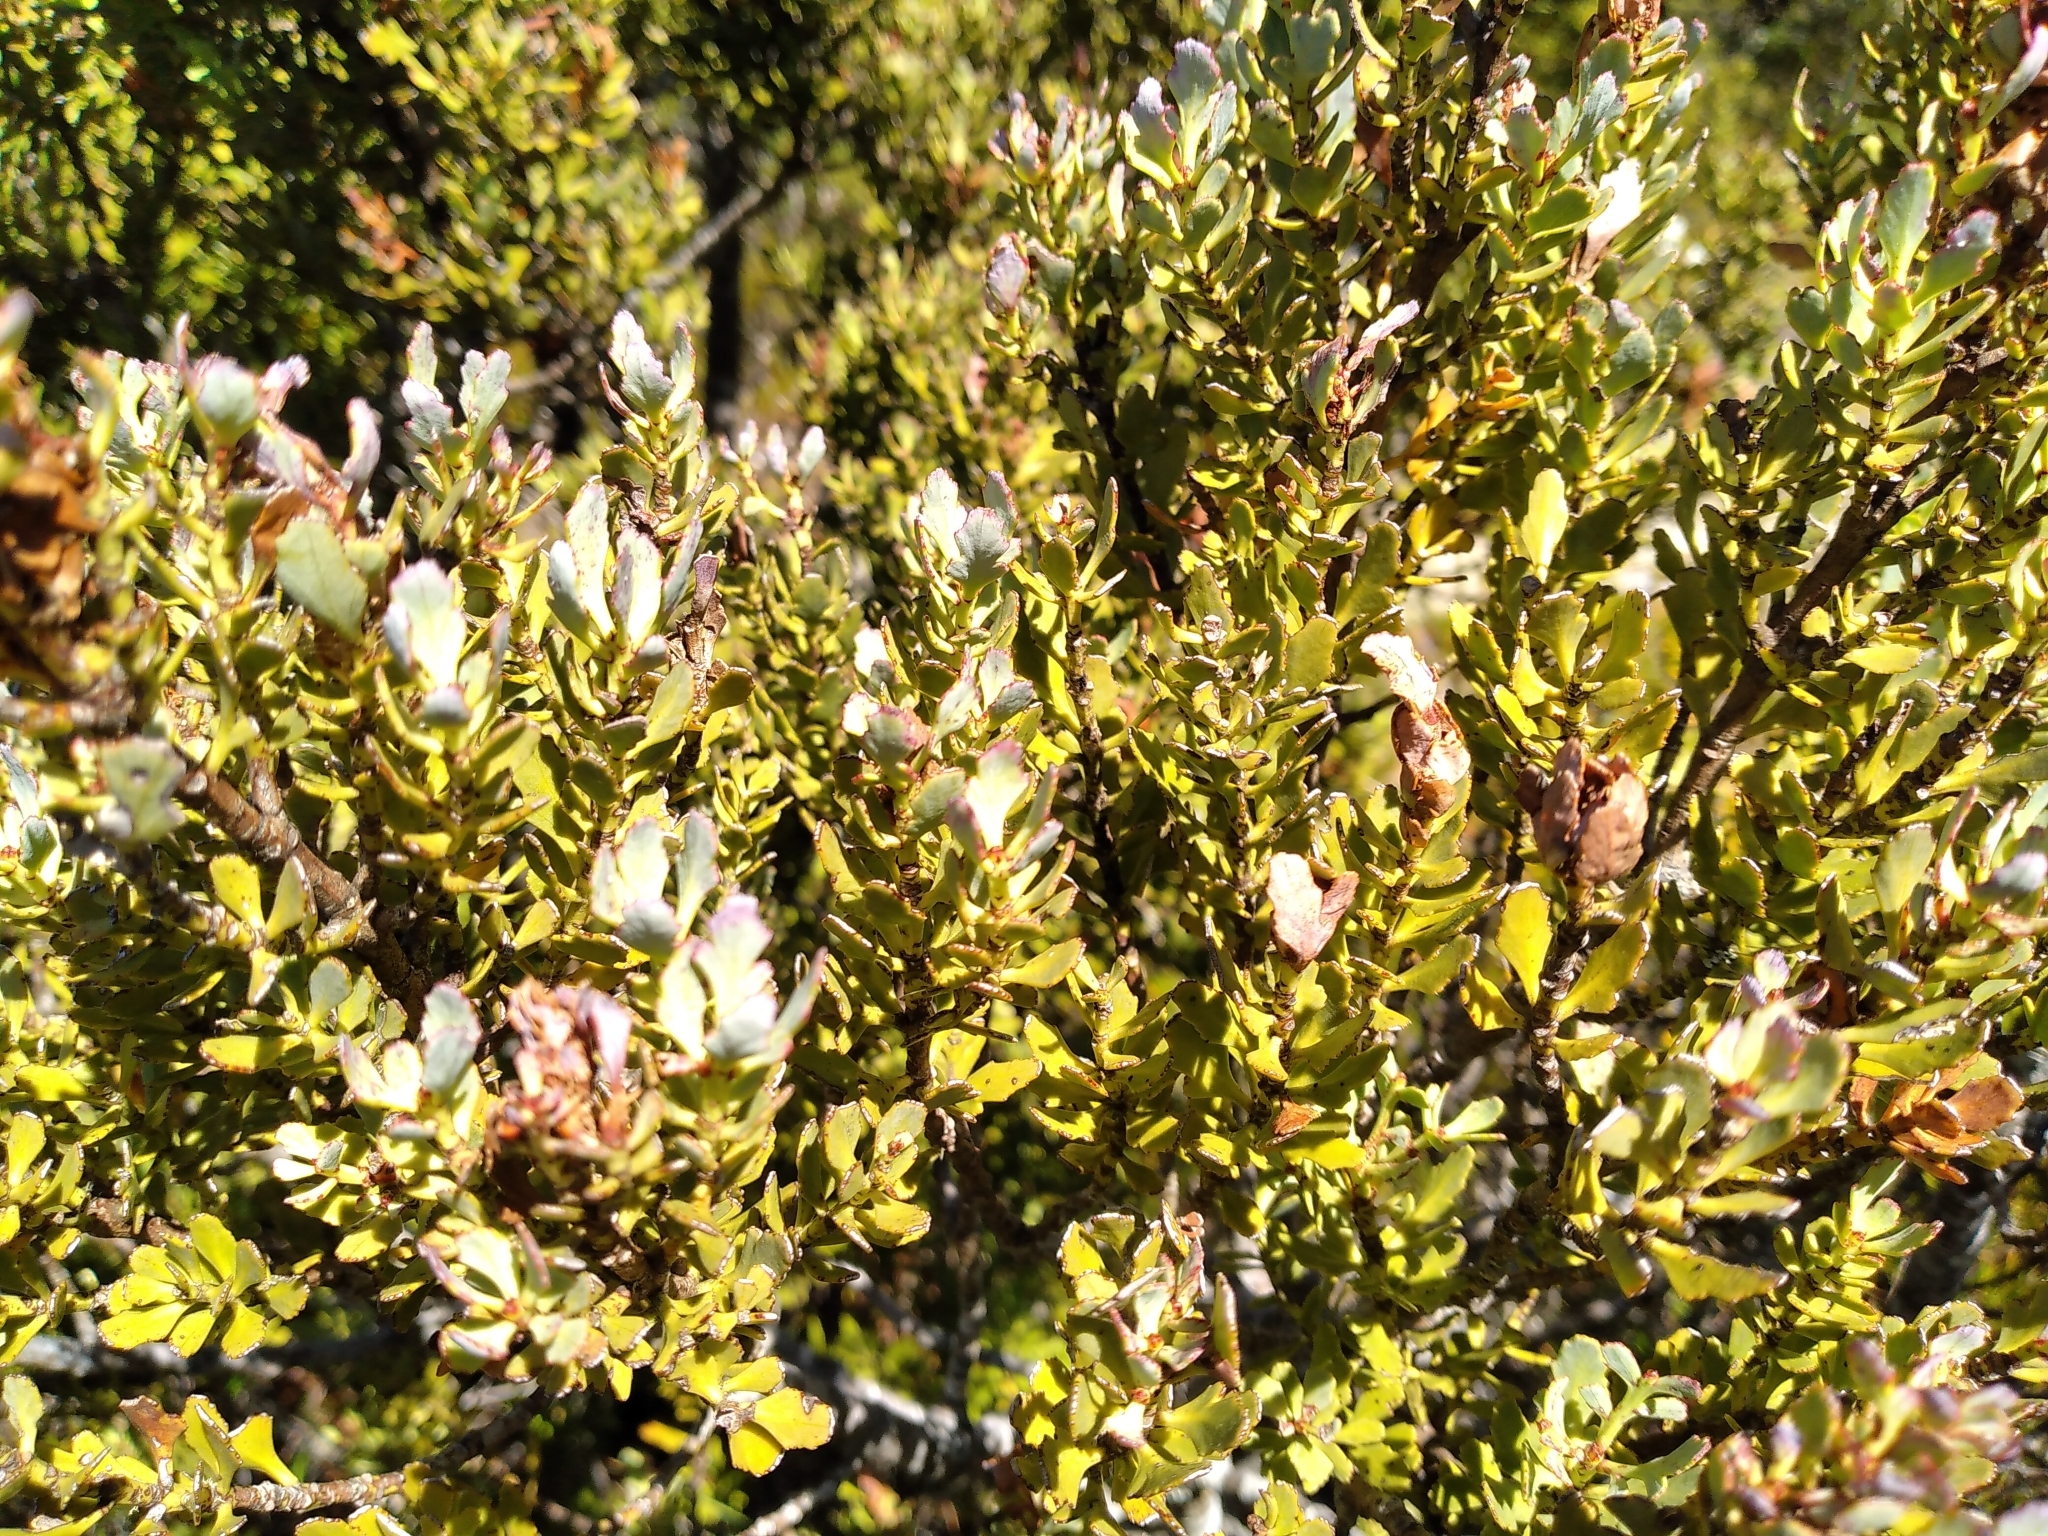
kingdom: Plantae
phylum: Tracheophyta
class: Pinopsida
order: Pinales
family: Phyllocladaceae
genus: Phyllocladus
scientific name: Phyllocladus trichomanoides
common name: Celery pine
